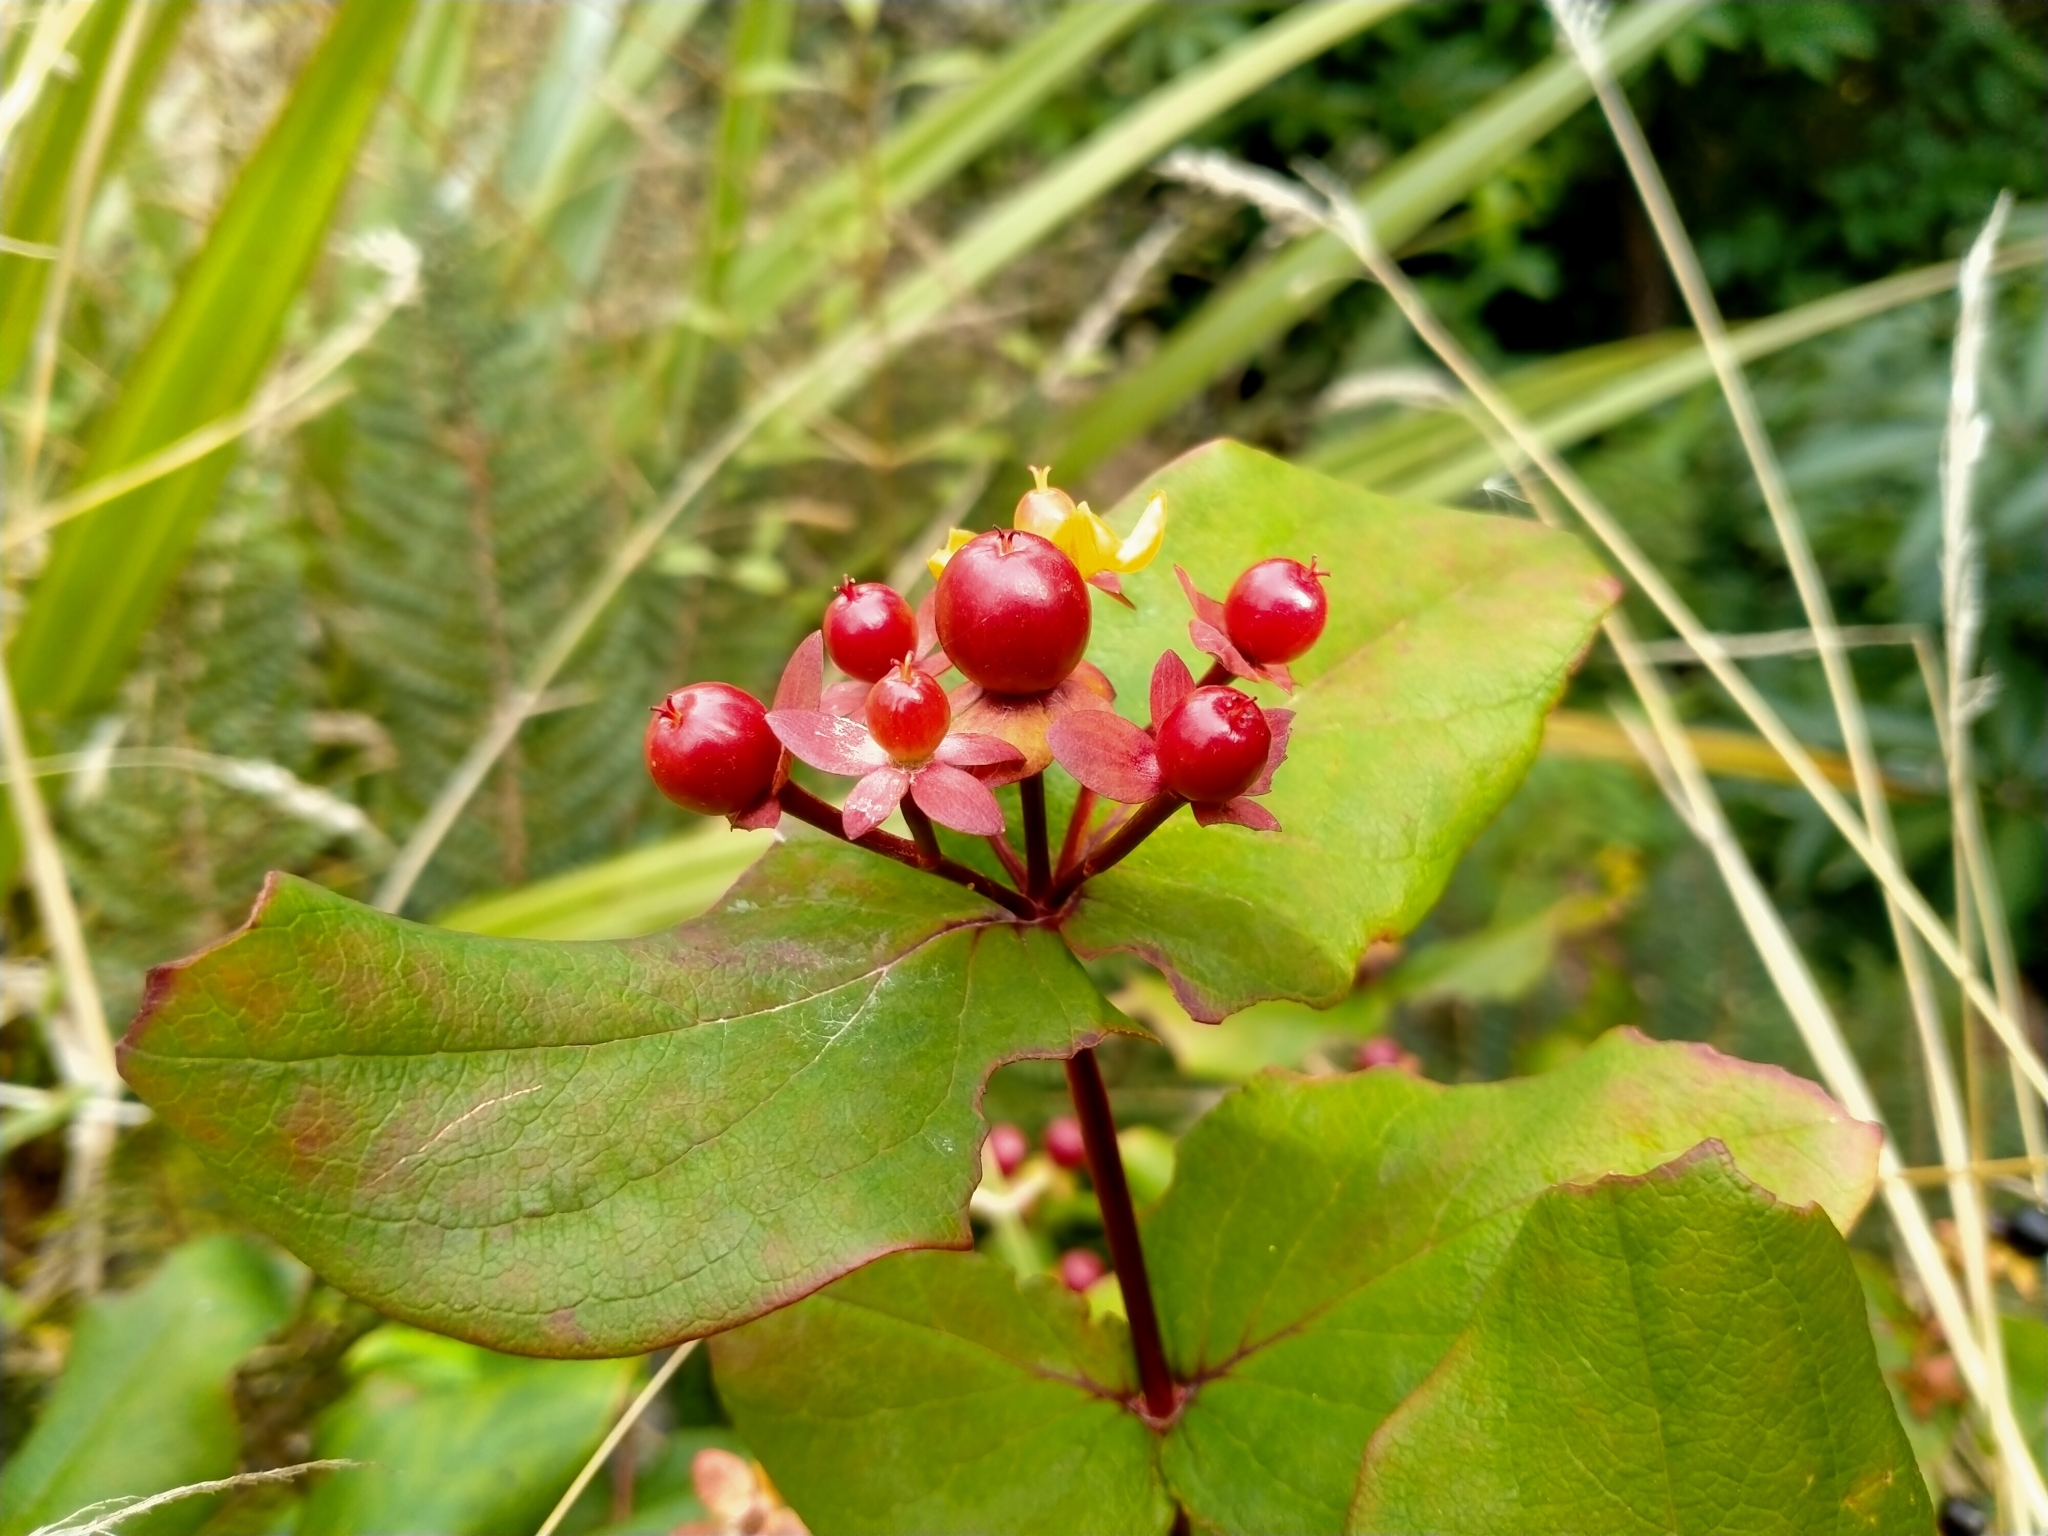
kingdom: Plantae
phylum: Tracheophyta
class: Magnoliopsida
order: Malpighiales
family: Hypericaceae
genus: Hypericum
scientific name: Hypericum androsaemum
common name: Sweet-amber
